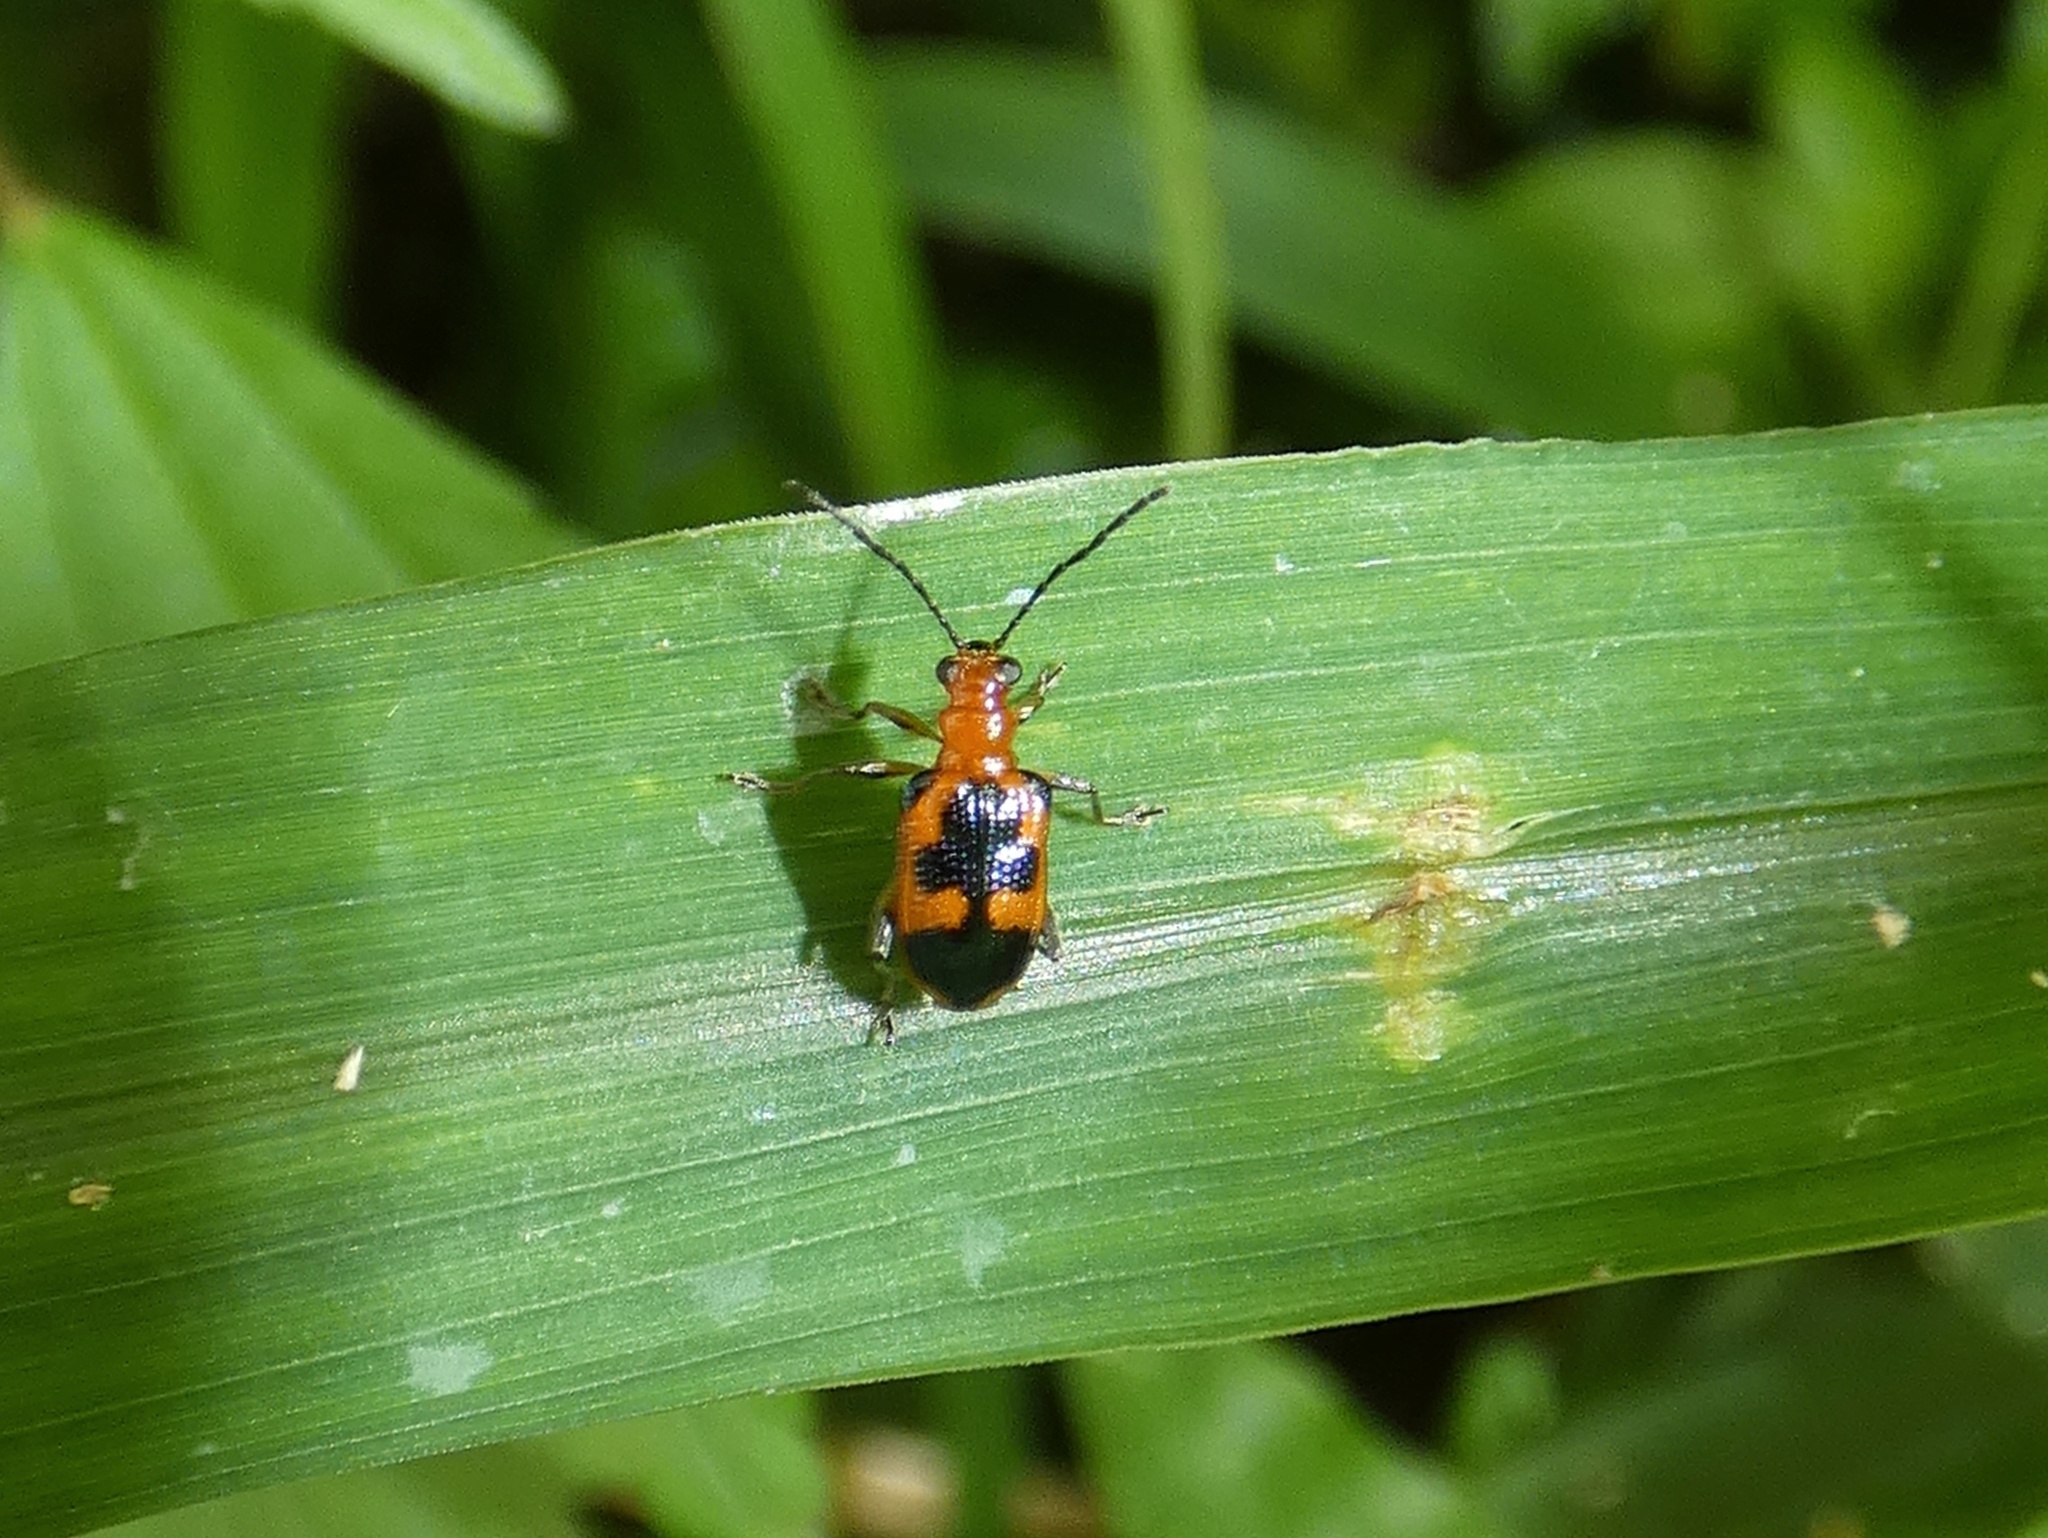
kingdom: Animalia
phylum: Arthropoda
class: Insecta
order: Coleoptera
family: Chrysomelidae
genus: Neolema
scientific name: Neolema dorsalis
